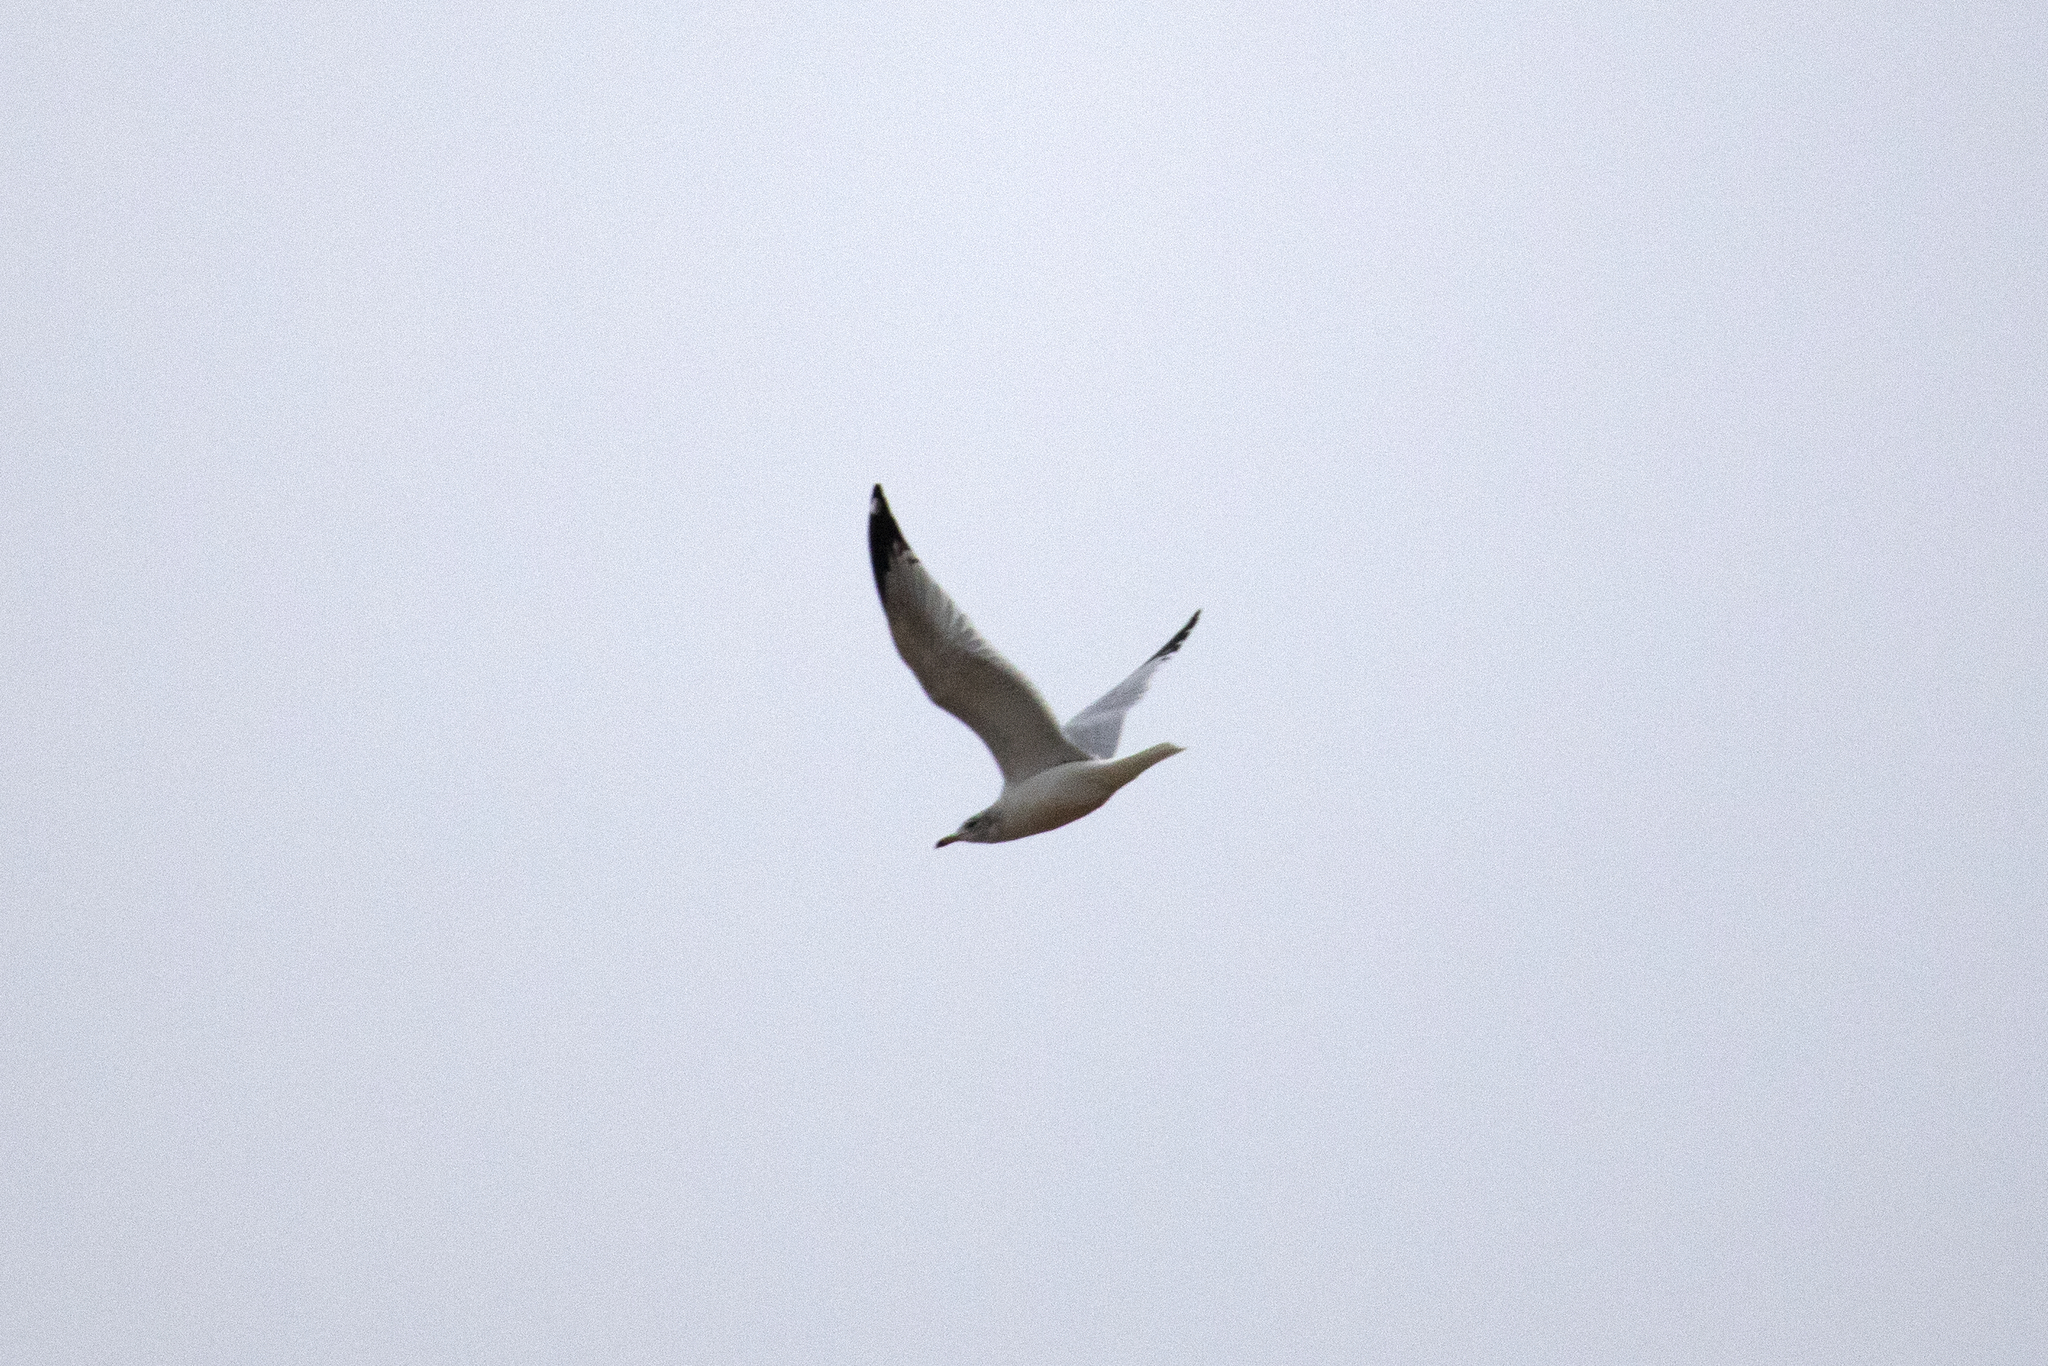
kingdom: Animalia
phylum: Chordata
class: Aves
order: Charadriiformes
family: Laridae
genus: Larus
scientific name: Larus delawarensis
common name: Ring-billed gull
